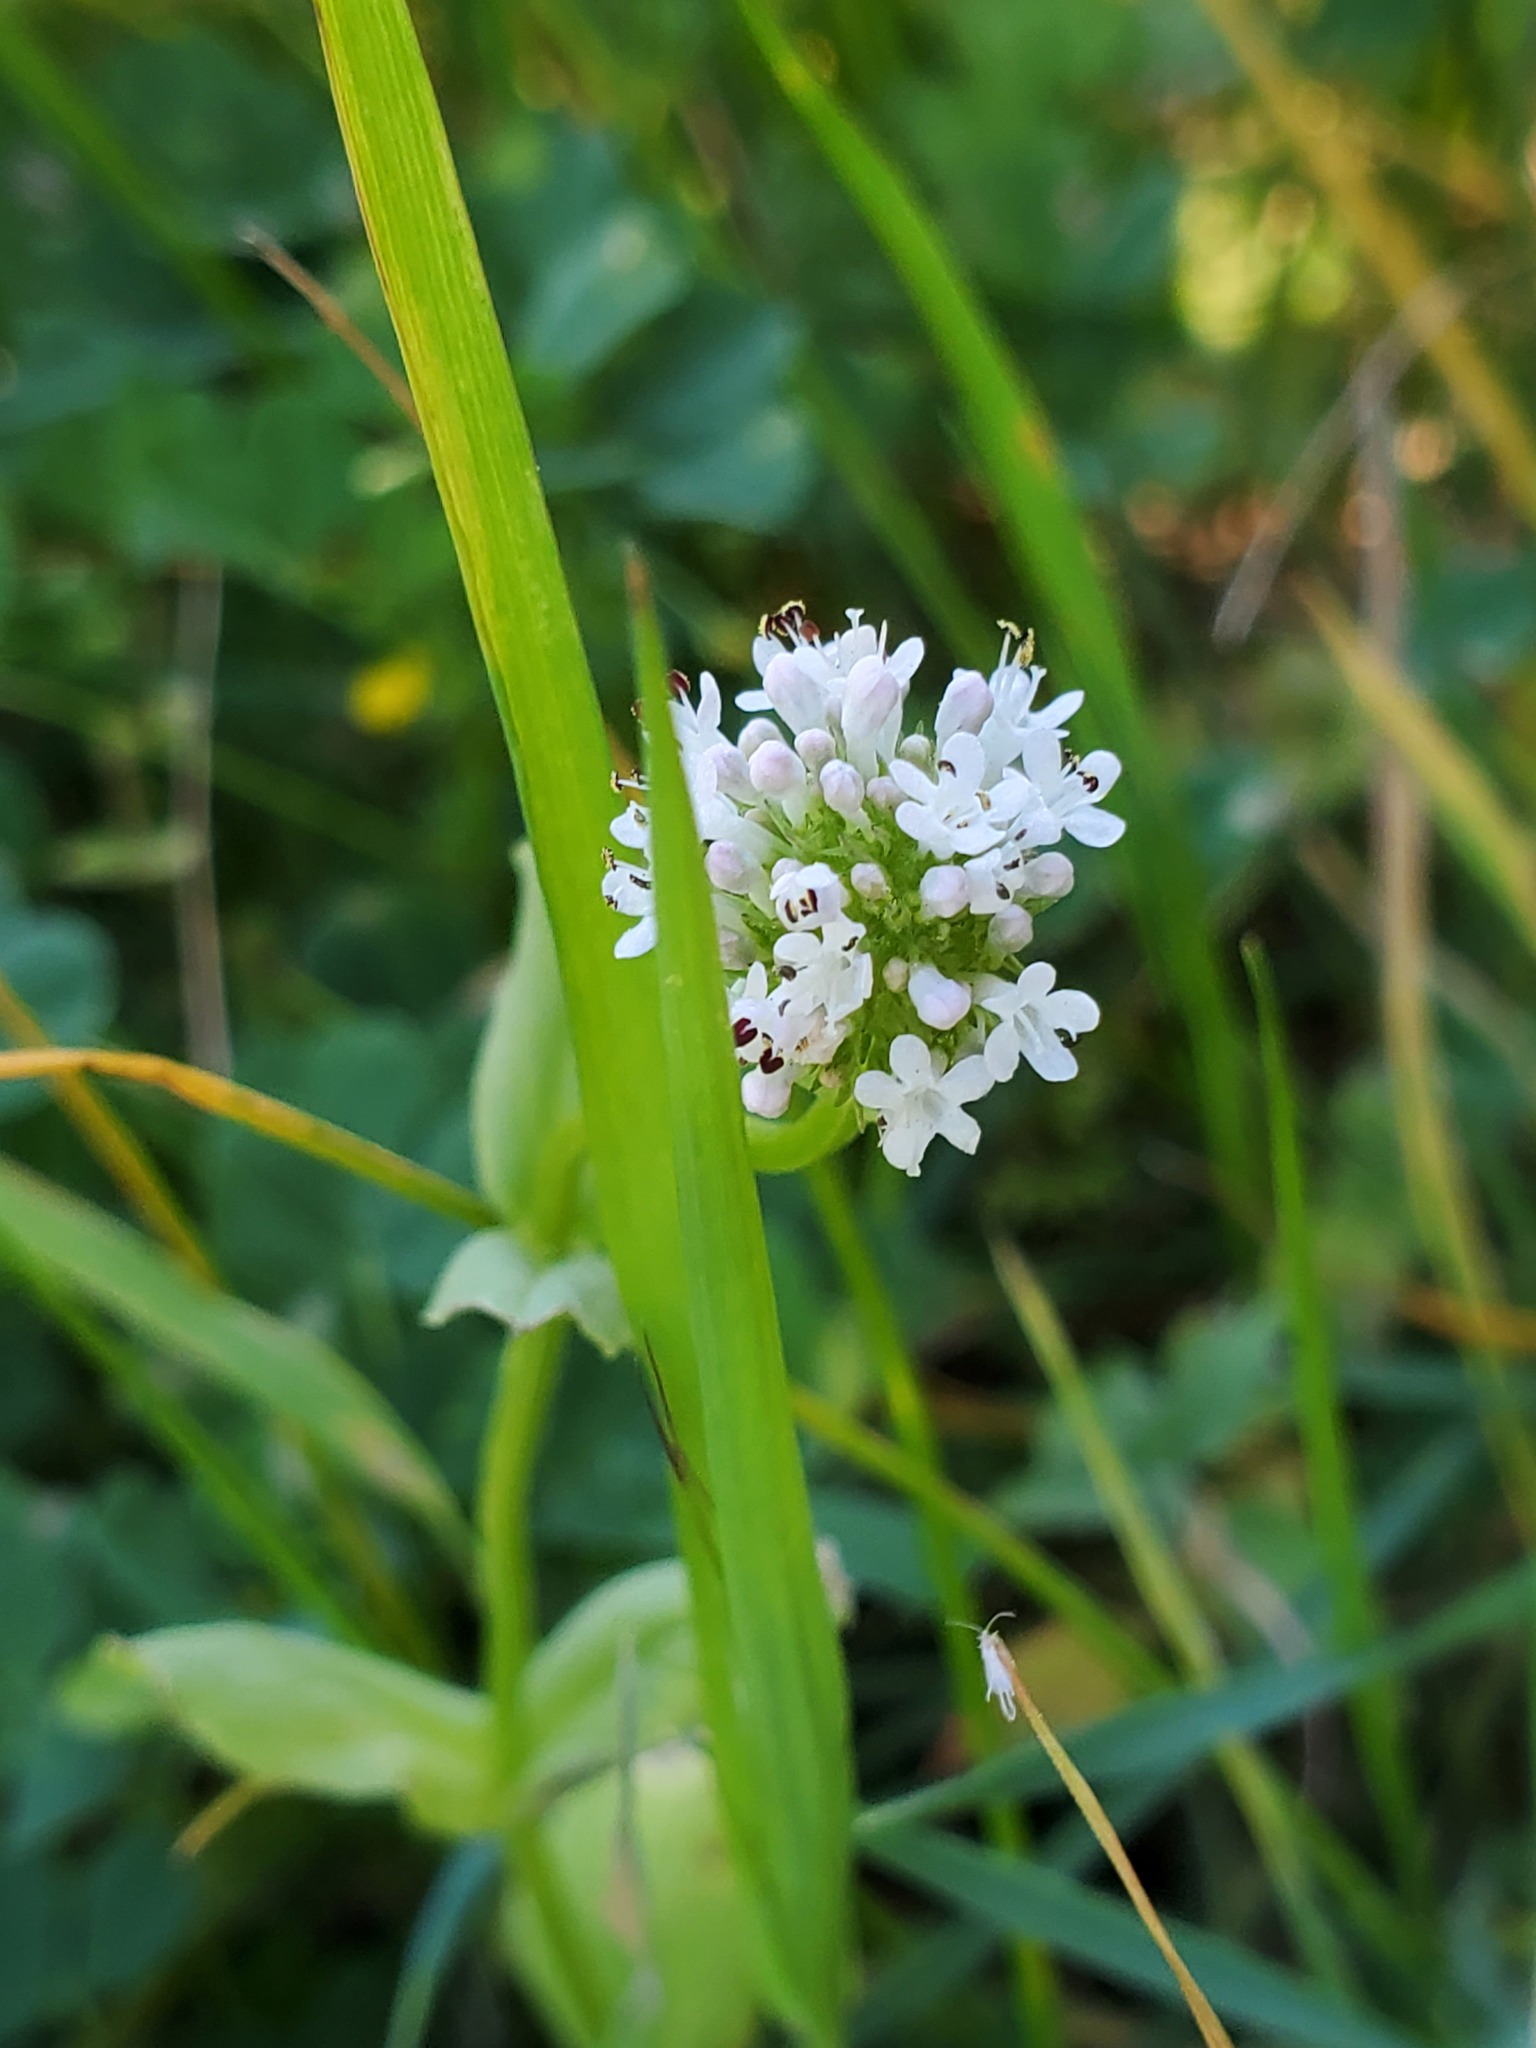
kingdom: Plantae
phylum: Tracheophyta
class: Magnoliopsida
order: Dipsacales
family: Caprifoliaceae
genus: Plectritis
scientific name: Plectritis congesta
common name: Pink plectritis
